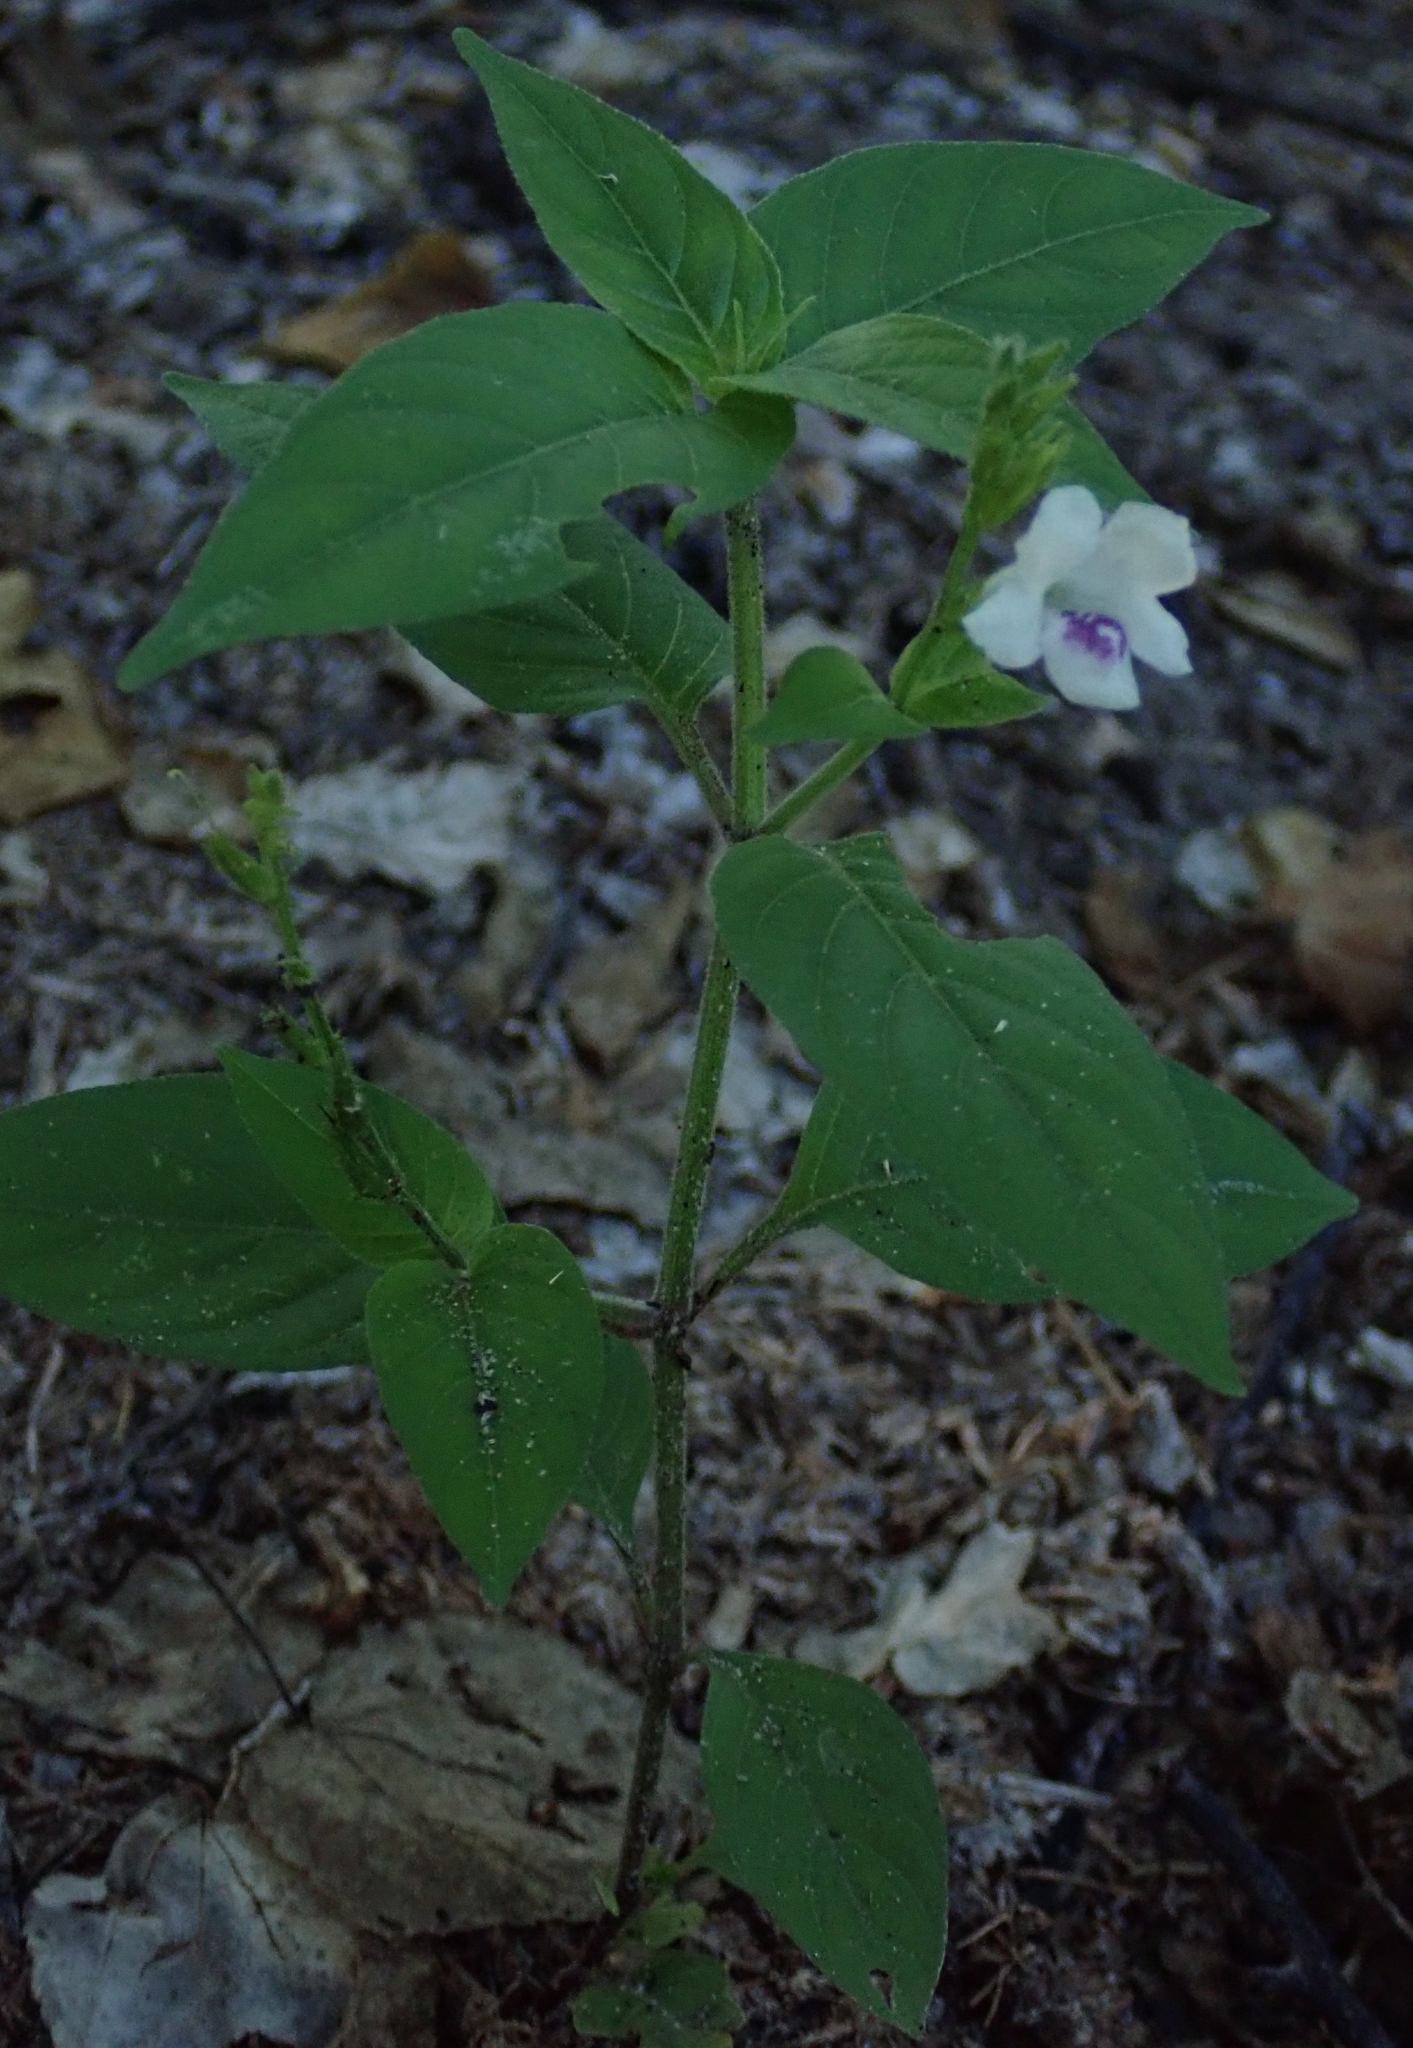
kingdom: Plantae
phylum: Tracheophyta
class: Magnoliopsida
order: Lamiales
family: Acanthaceae
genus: Asystasia
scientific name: Asystasia intrusa
